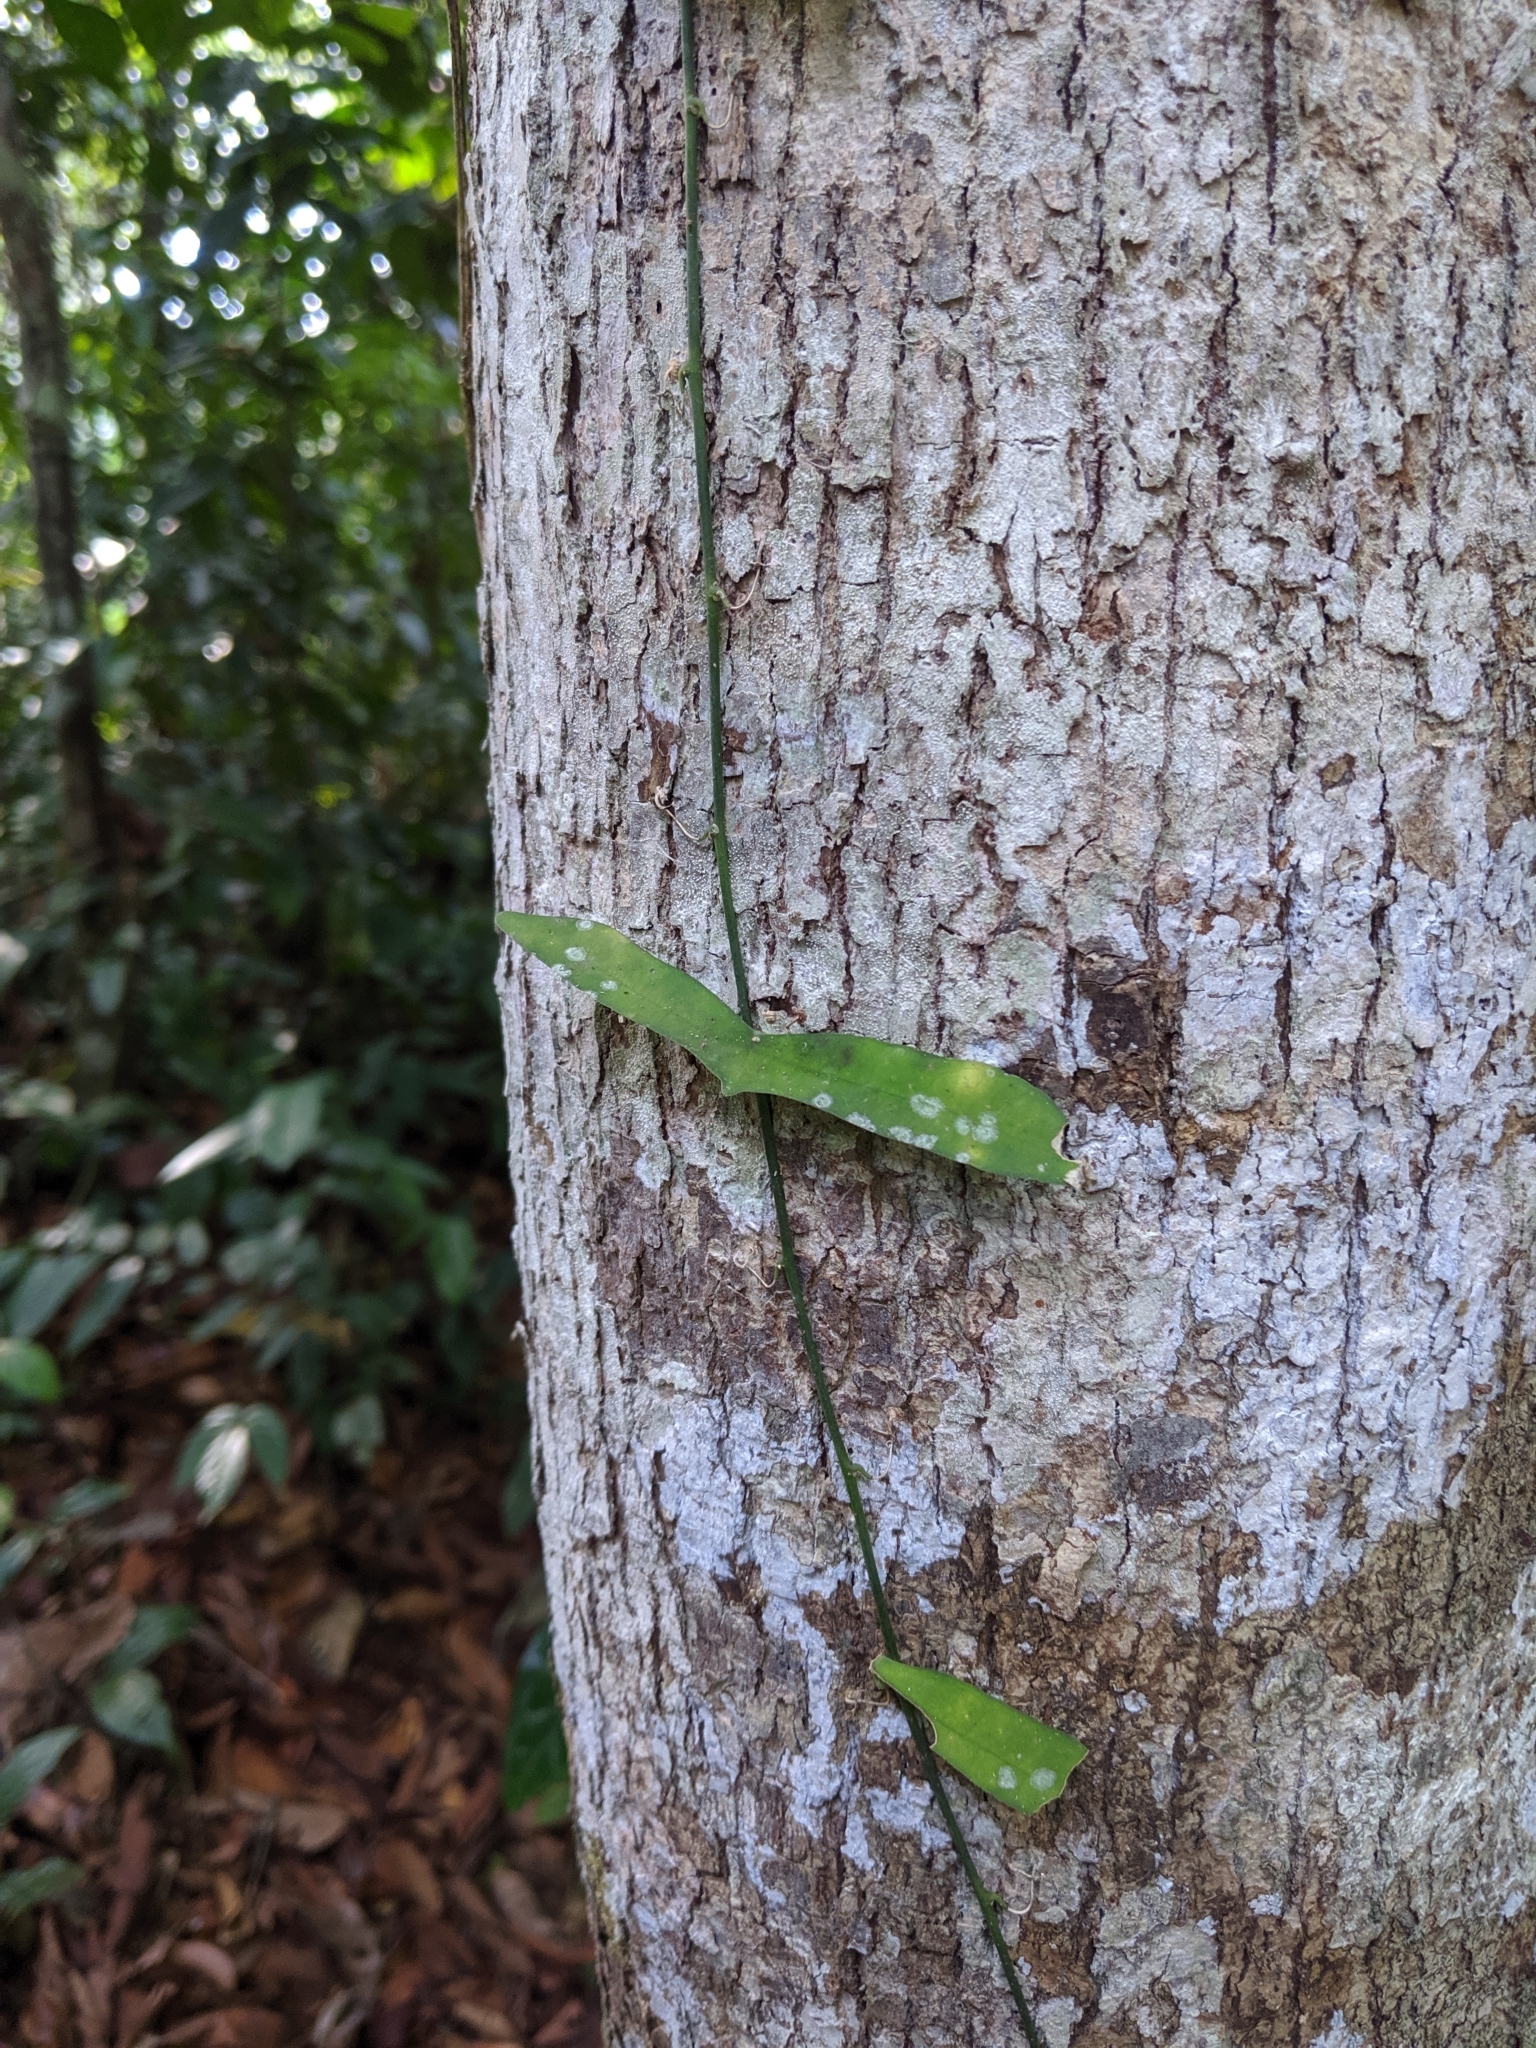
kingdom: Plantae
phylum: Tracheophyta
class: Magnoliopsida
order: Malpighiales
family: Passifloraceae
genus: Adenia
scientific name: Adenia cordifolia
